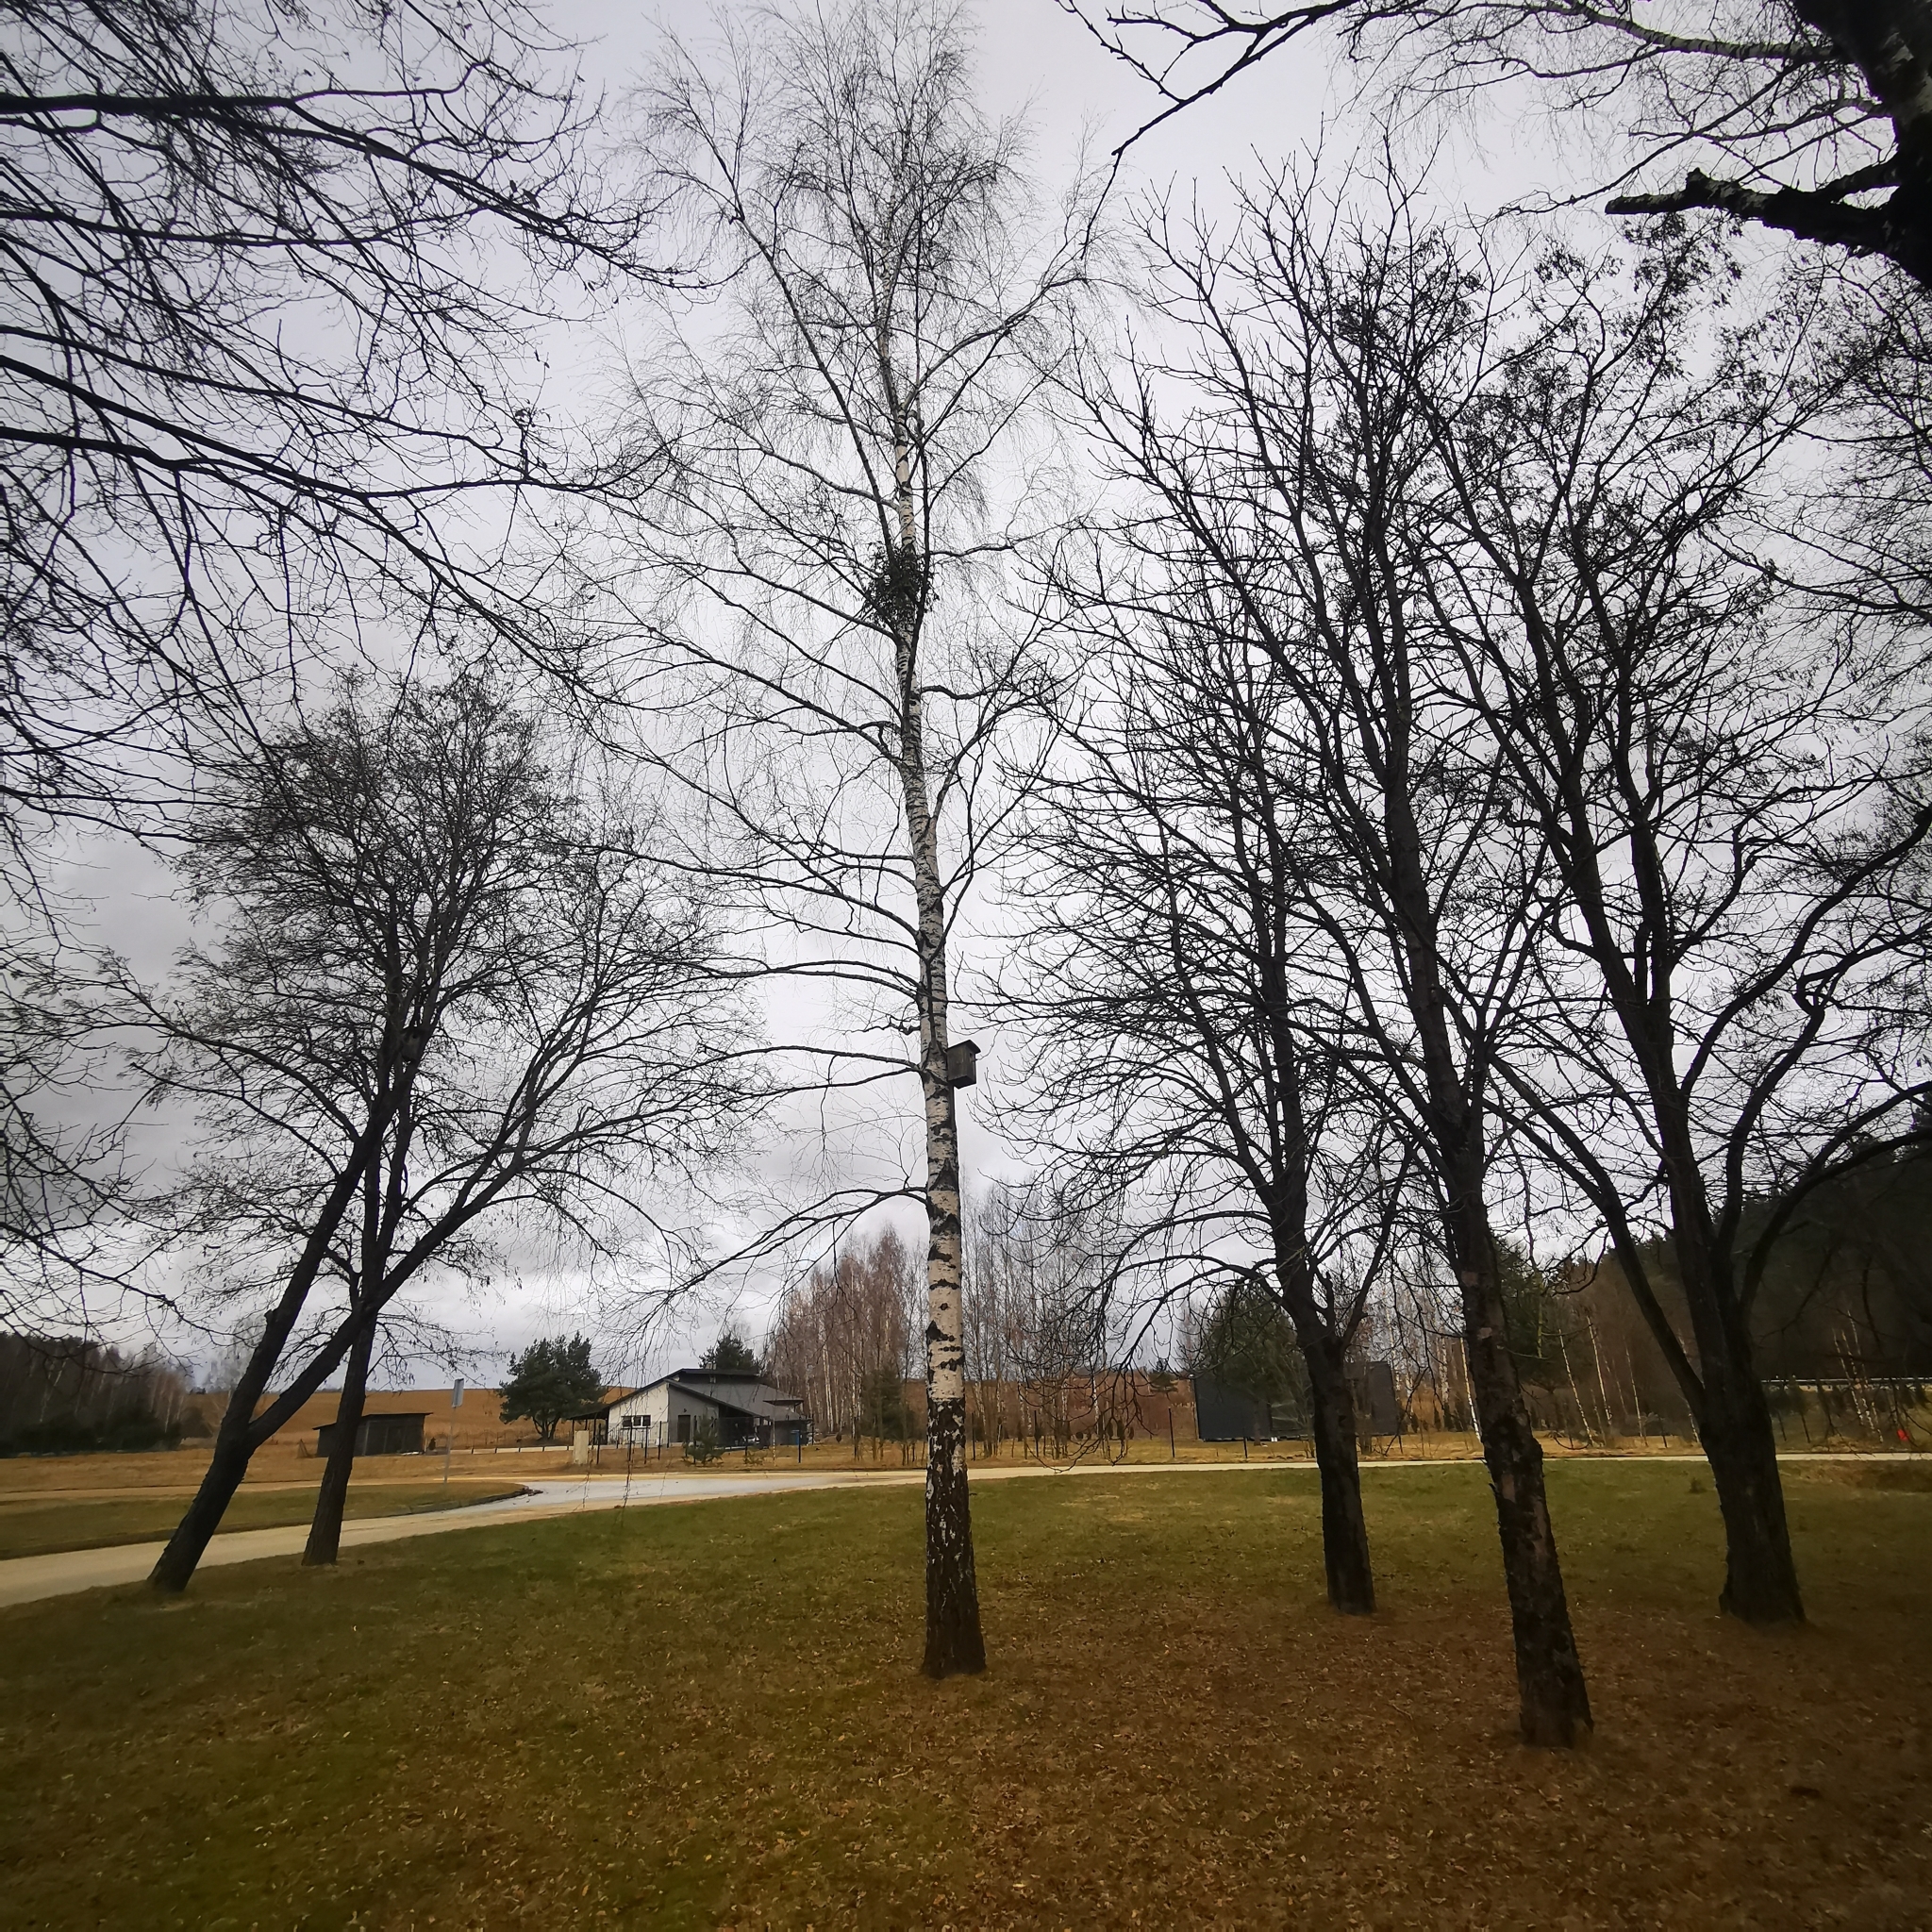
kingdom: Plantae
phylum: Tracheophyta
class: Magnoliopsida
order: Santalales
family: Viscaceae
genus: Viscum
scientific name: Viscum album
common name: Mistletoe
